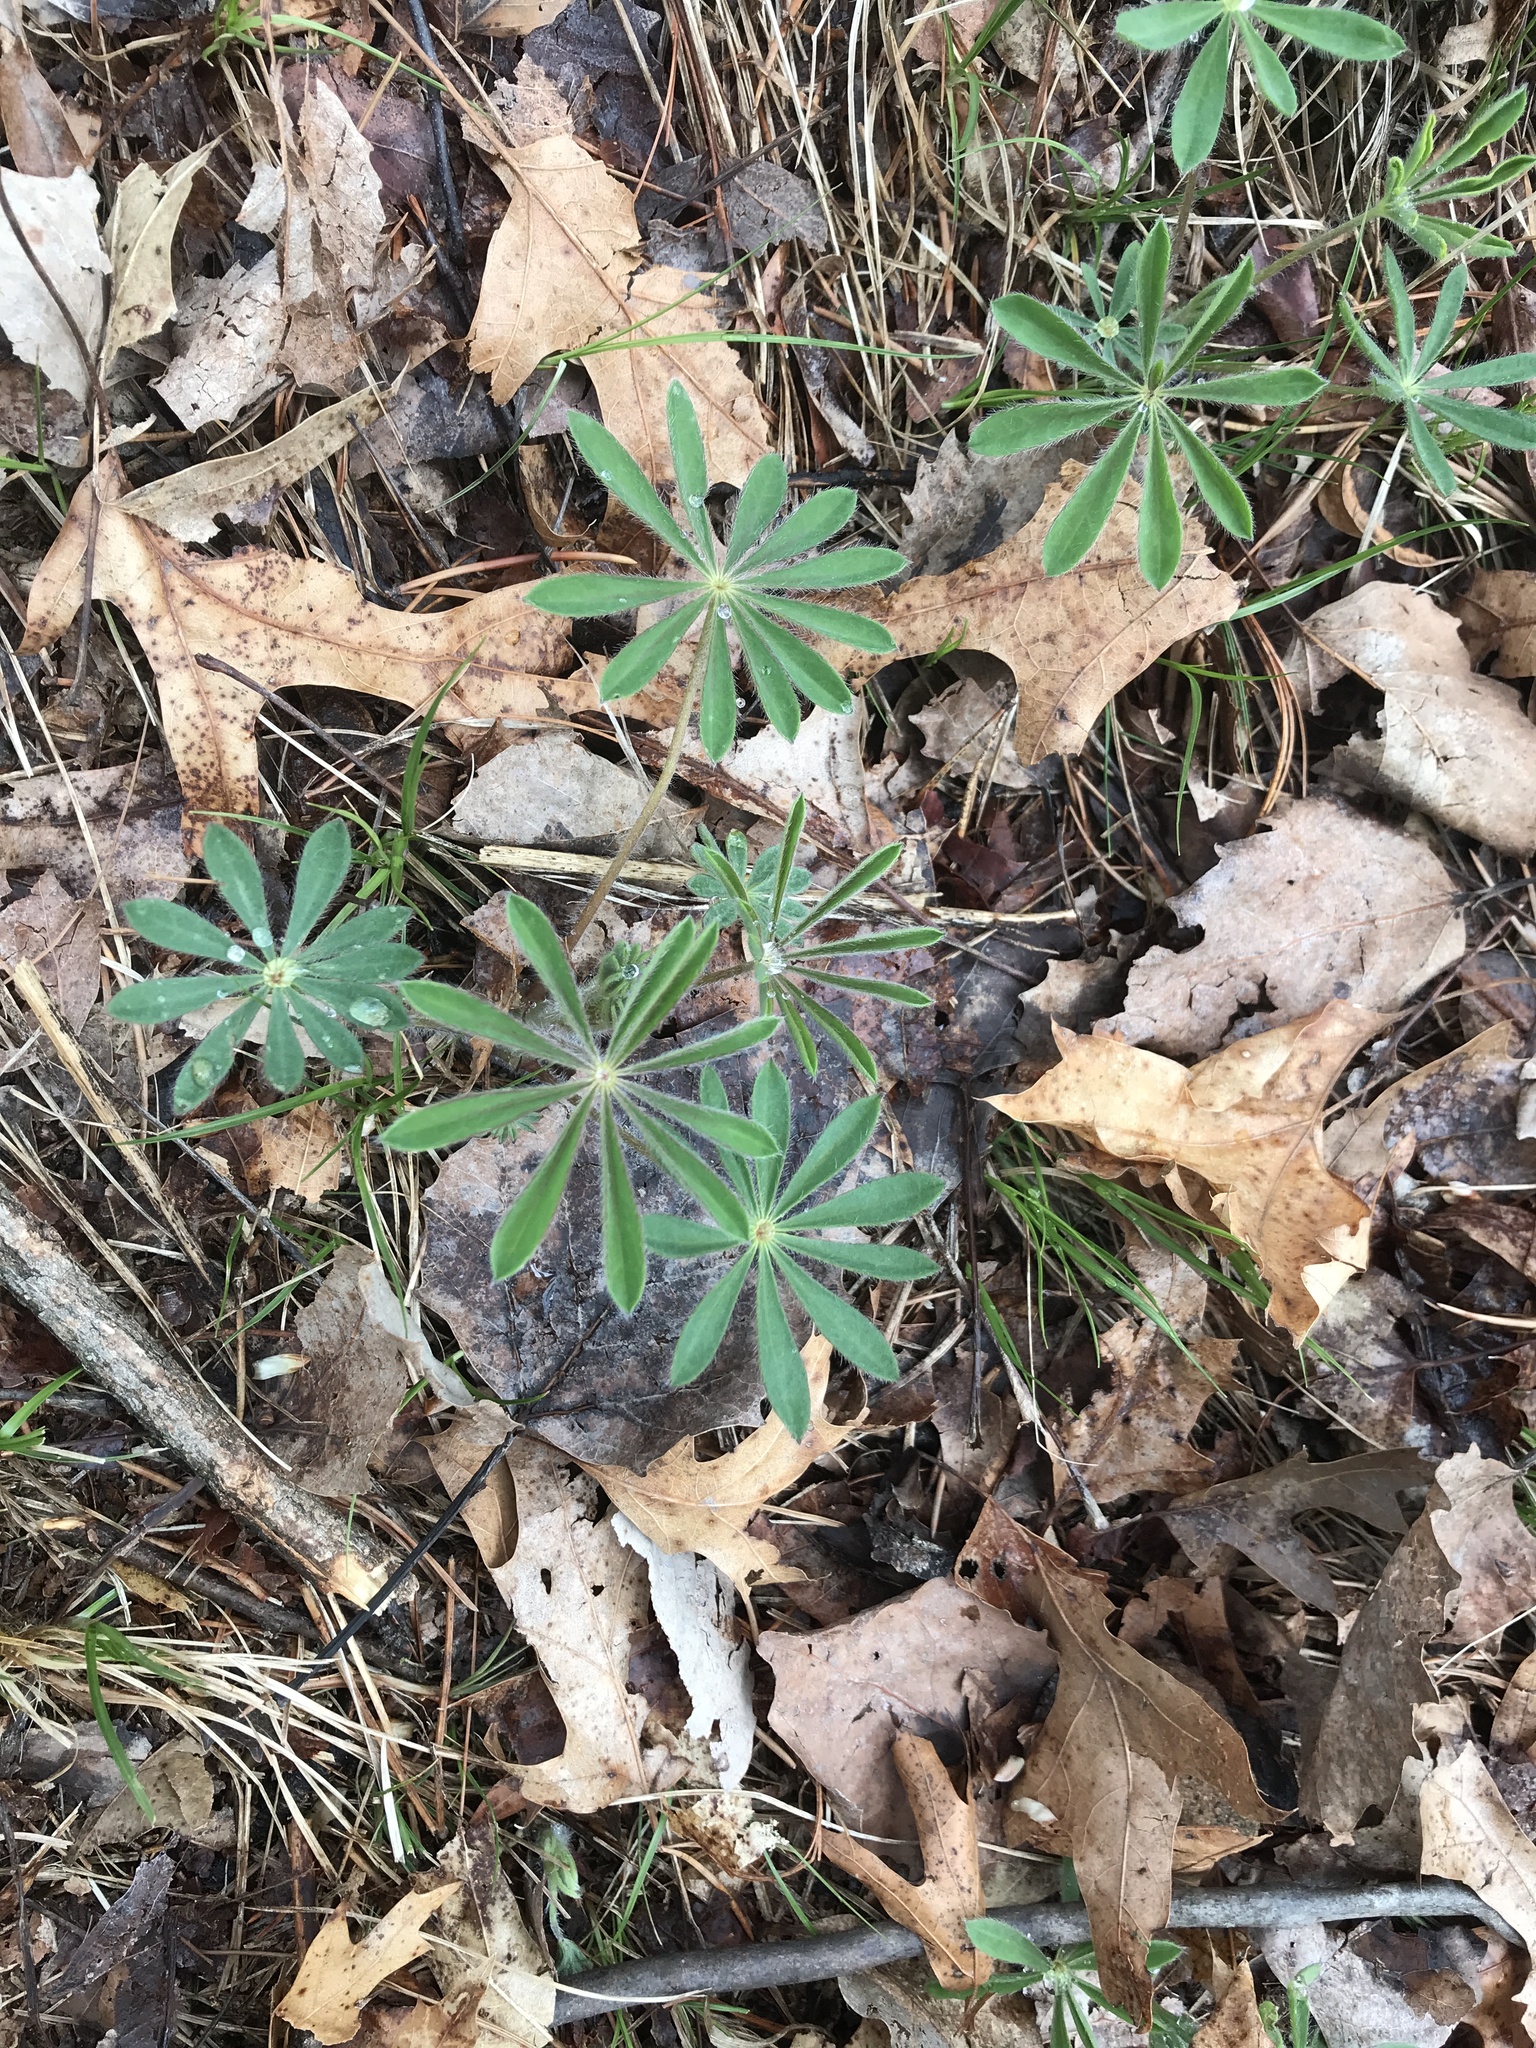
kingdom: Plantae
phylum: Tracheophyta
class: Magnoliopsida
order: Fabales
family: Fabaceae
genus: Lupinus
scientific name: Lupinus perennis
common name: Sundial lupine
